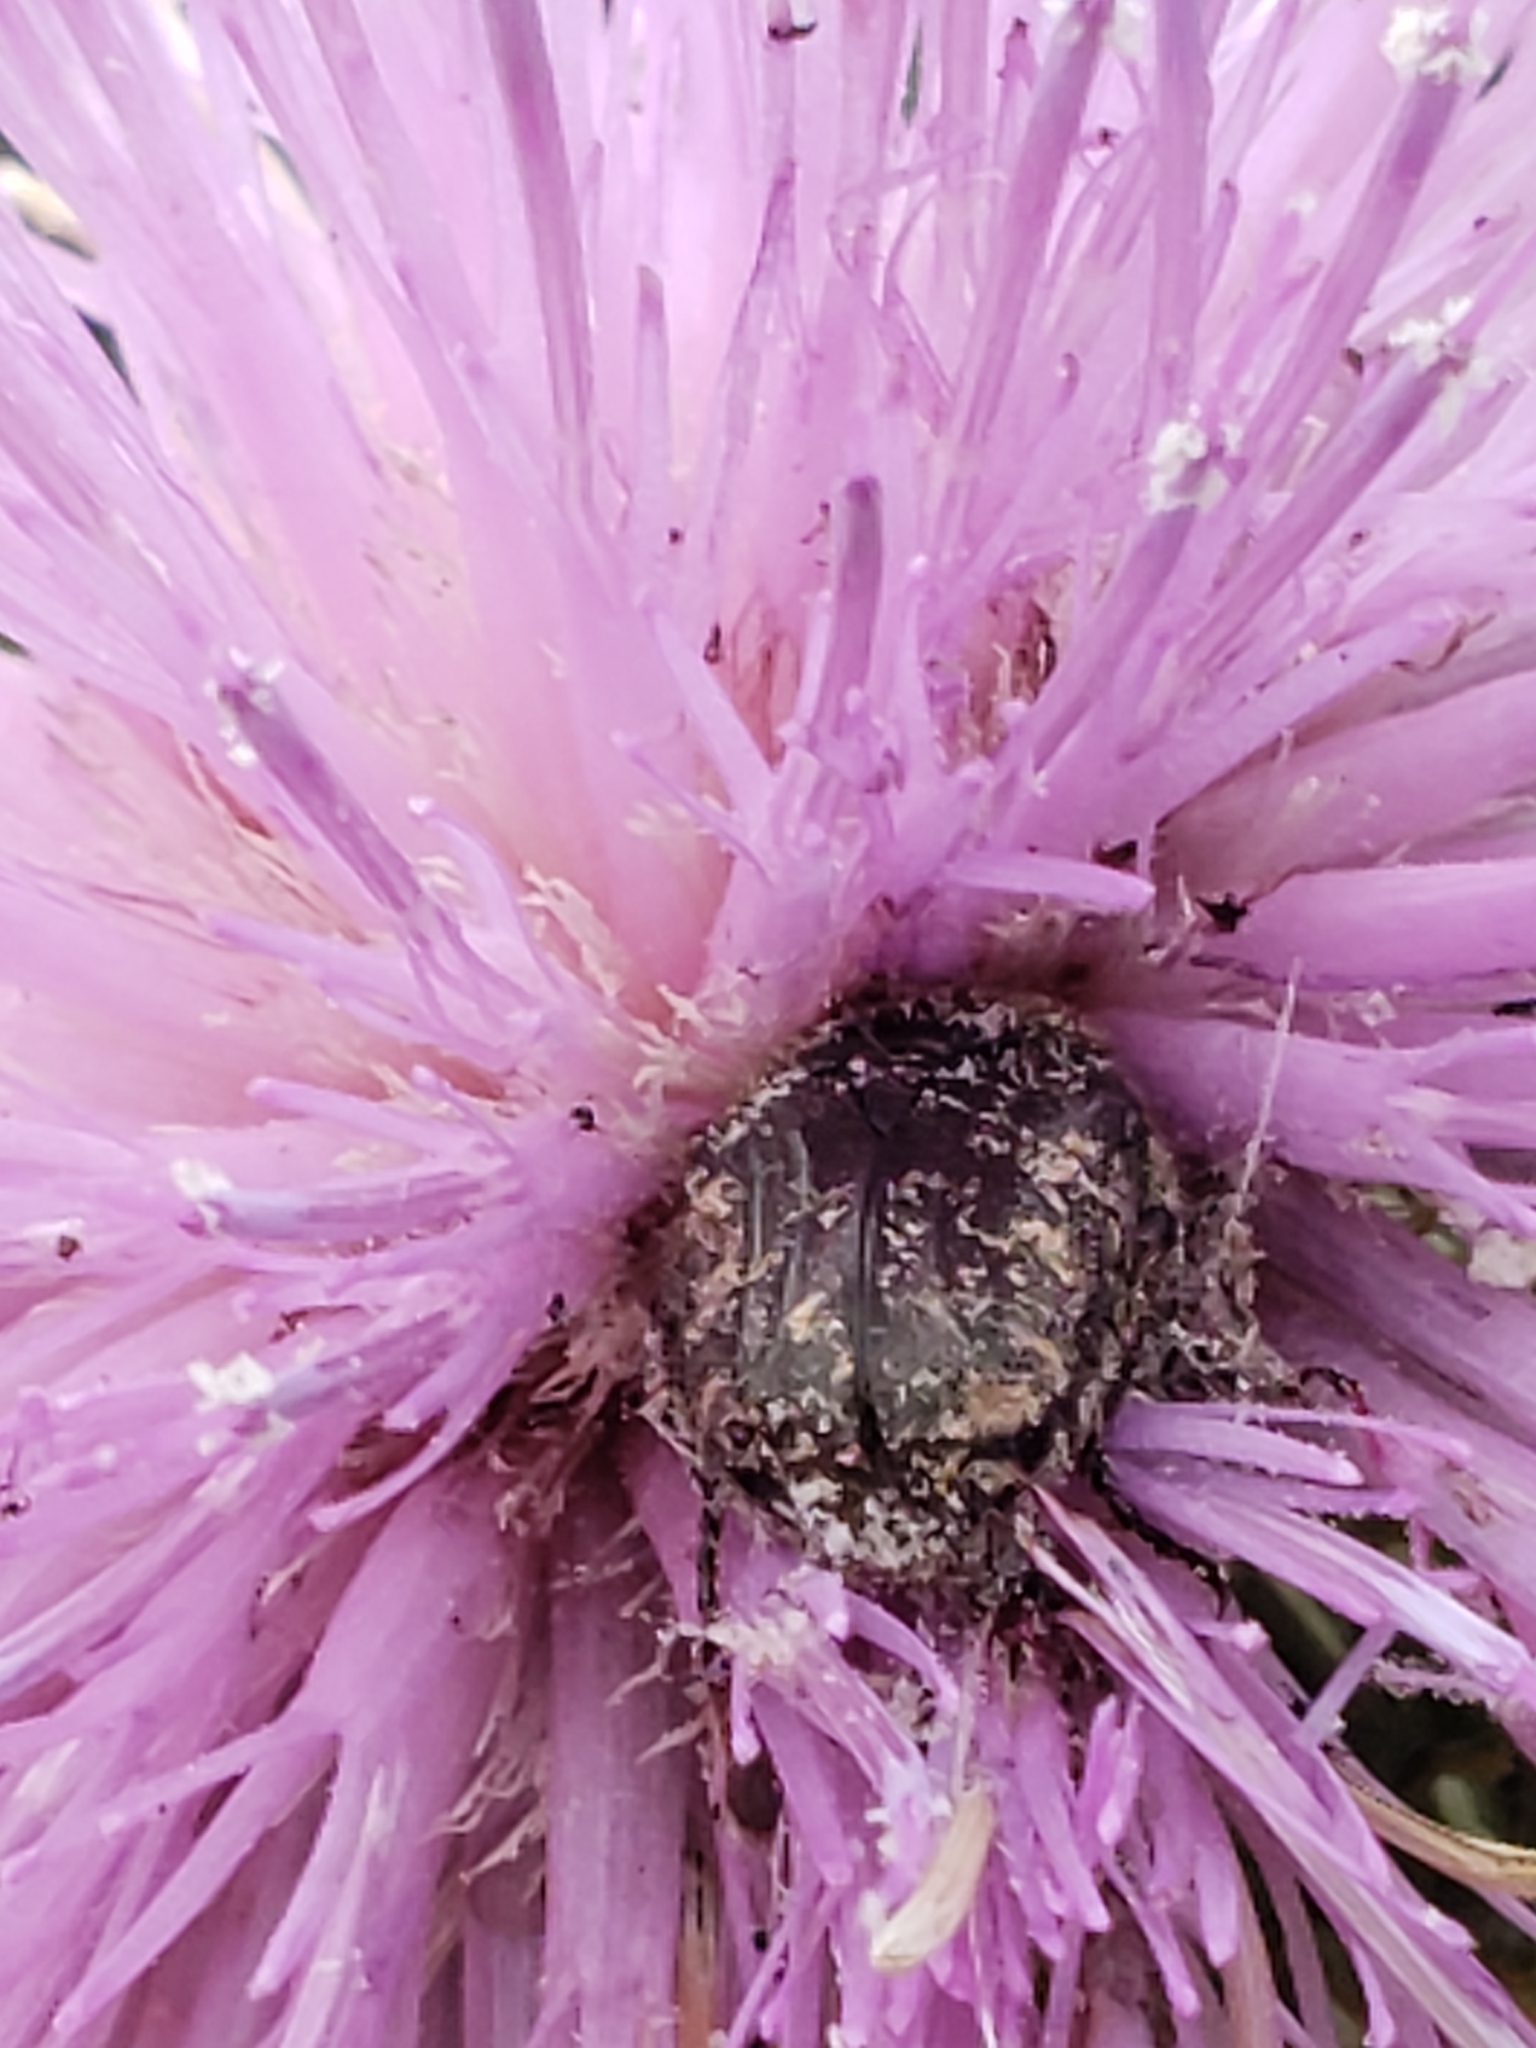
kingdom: Animalia
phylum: Arthropoda
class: Insecta
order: Coleoptera
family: Scarabaeidae
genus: Euphoria
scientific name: Euphoria sepulcralis
